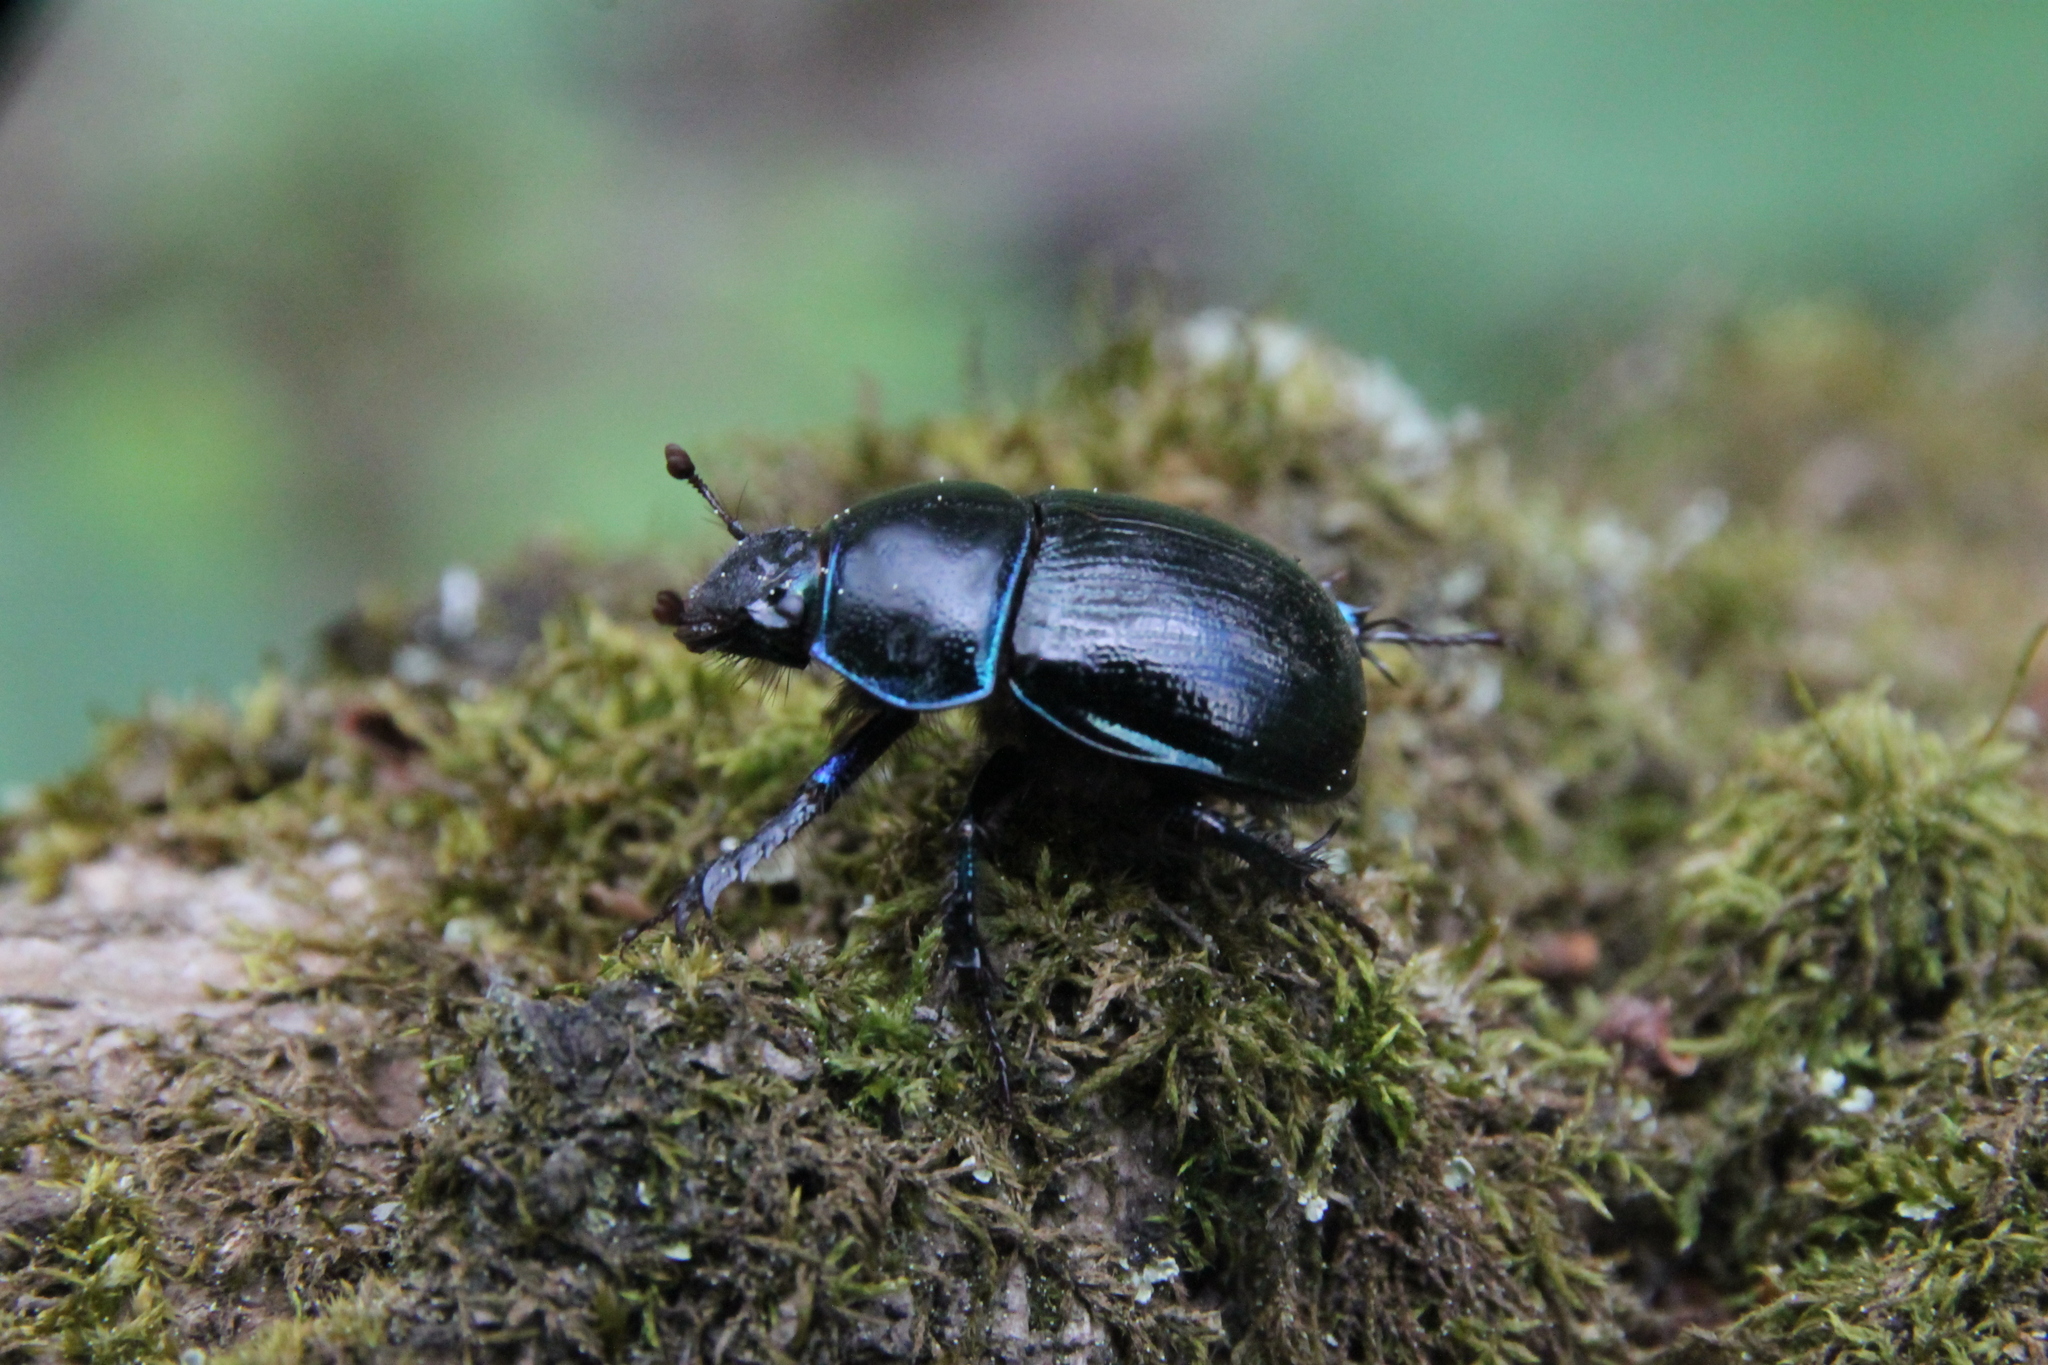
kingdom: Animalia
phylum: Arthropoda
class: Insecta
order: Coleoptera
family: Geotrupidae
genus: Anoplotrupes
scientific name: Anoplotrupes stercorosus
